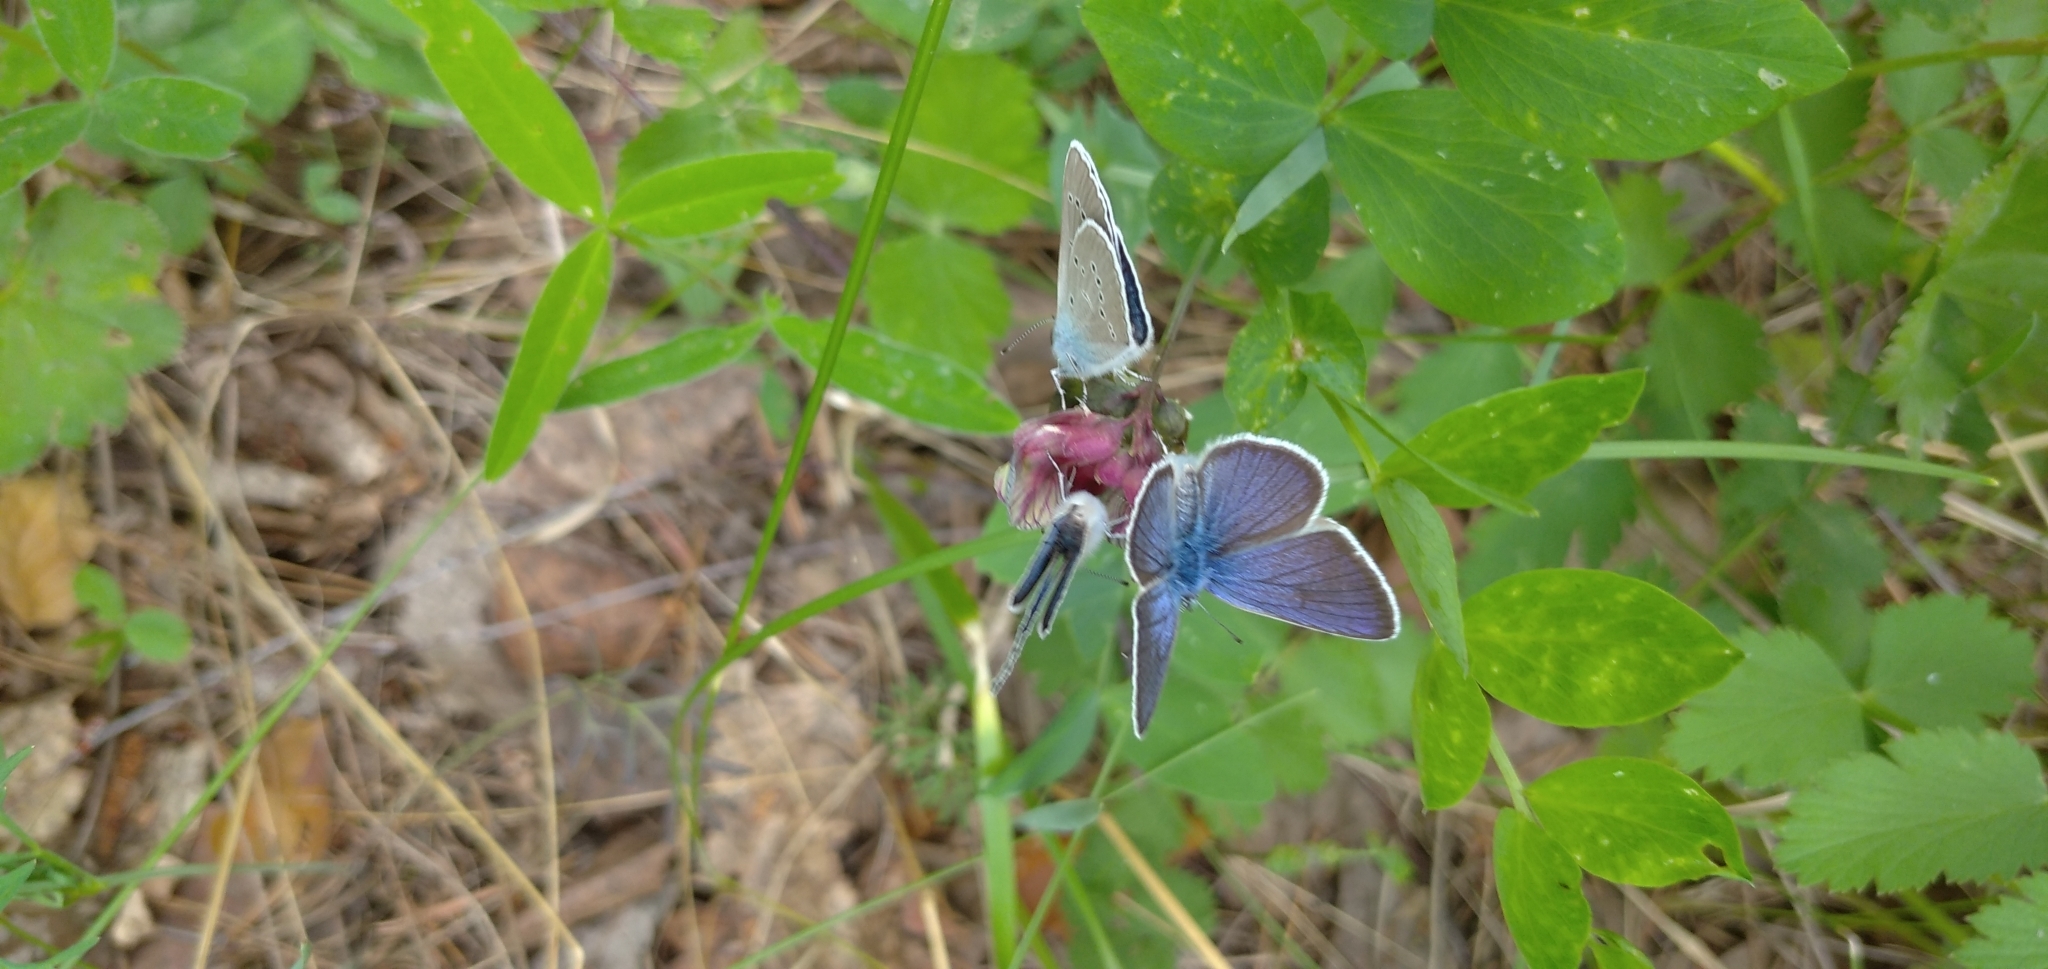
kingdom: Animalia
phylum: Arthropoda
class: Insecta
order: Lepidoptera
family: Lycaenidae
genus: Cyaniris
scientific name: Cyaniris semiargus
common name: Mazarine blue
